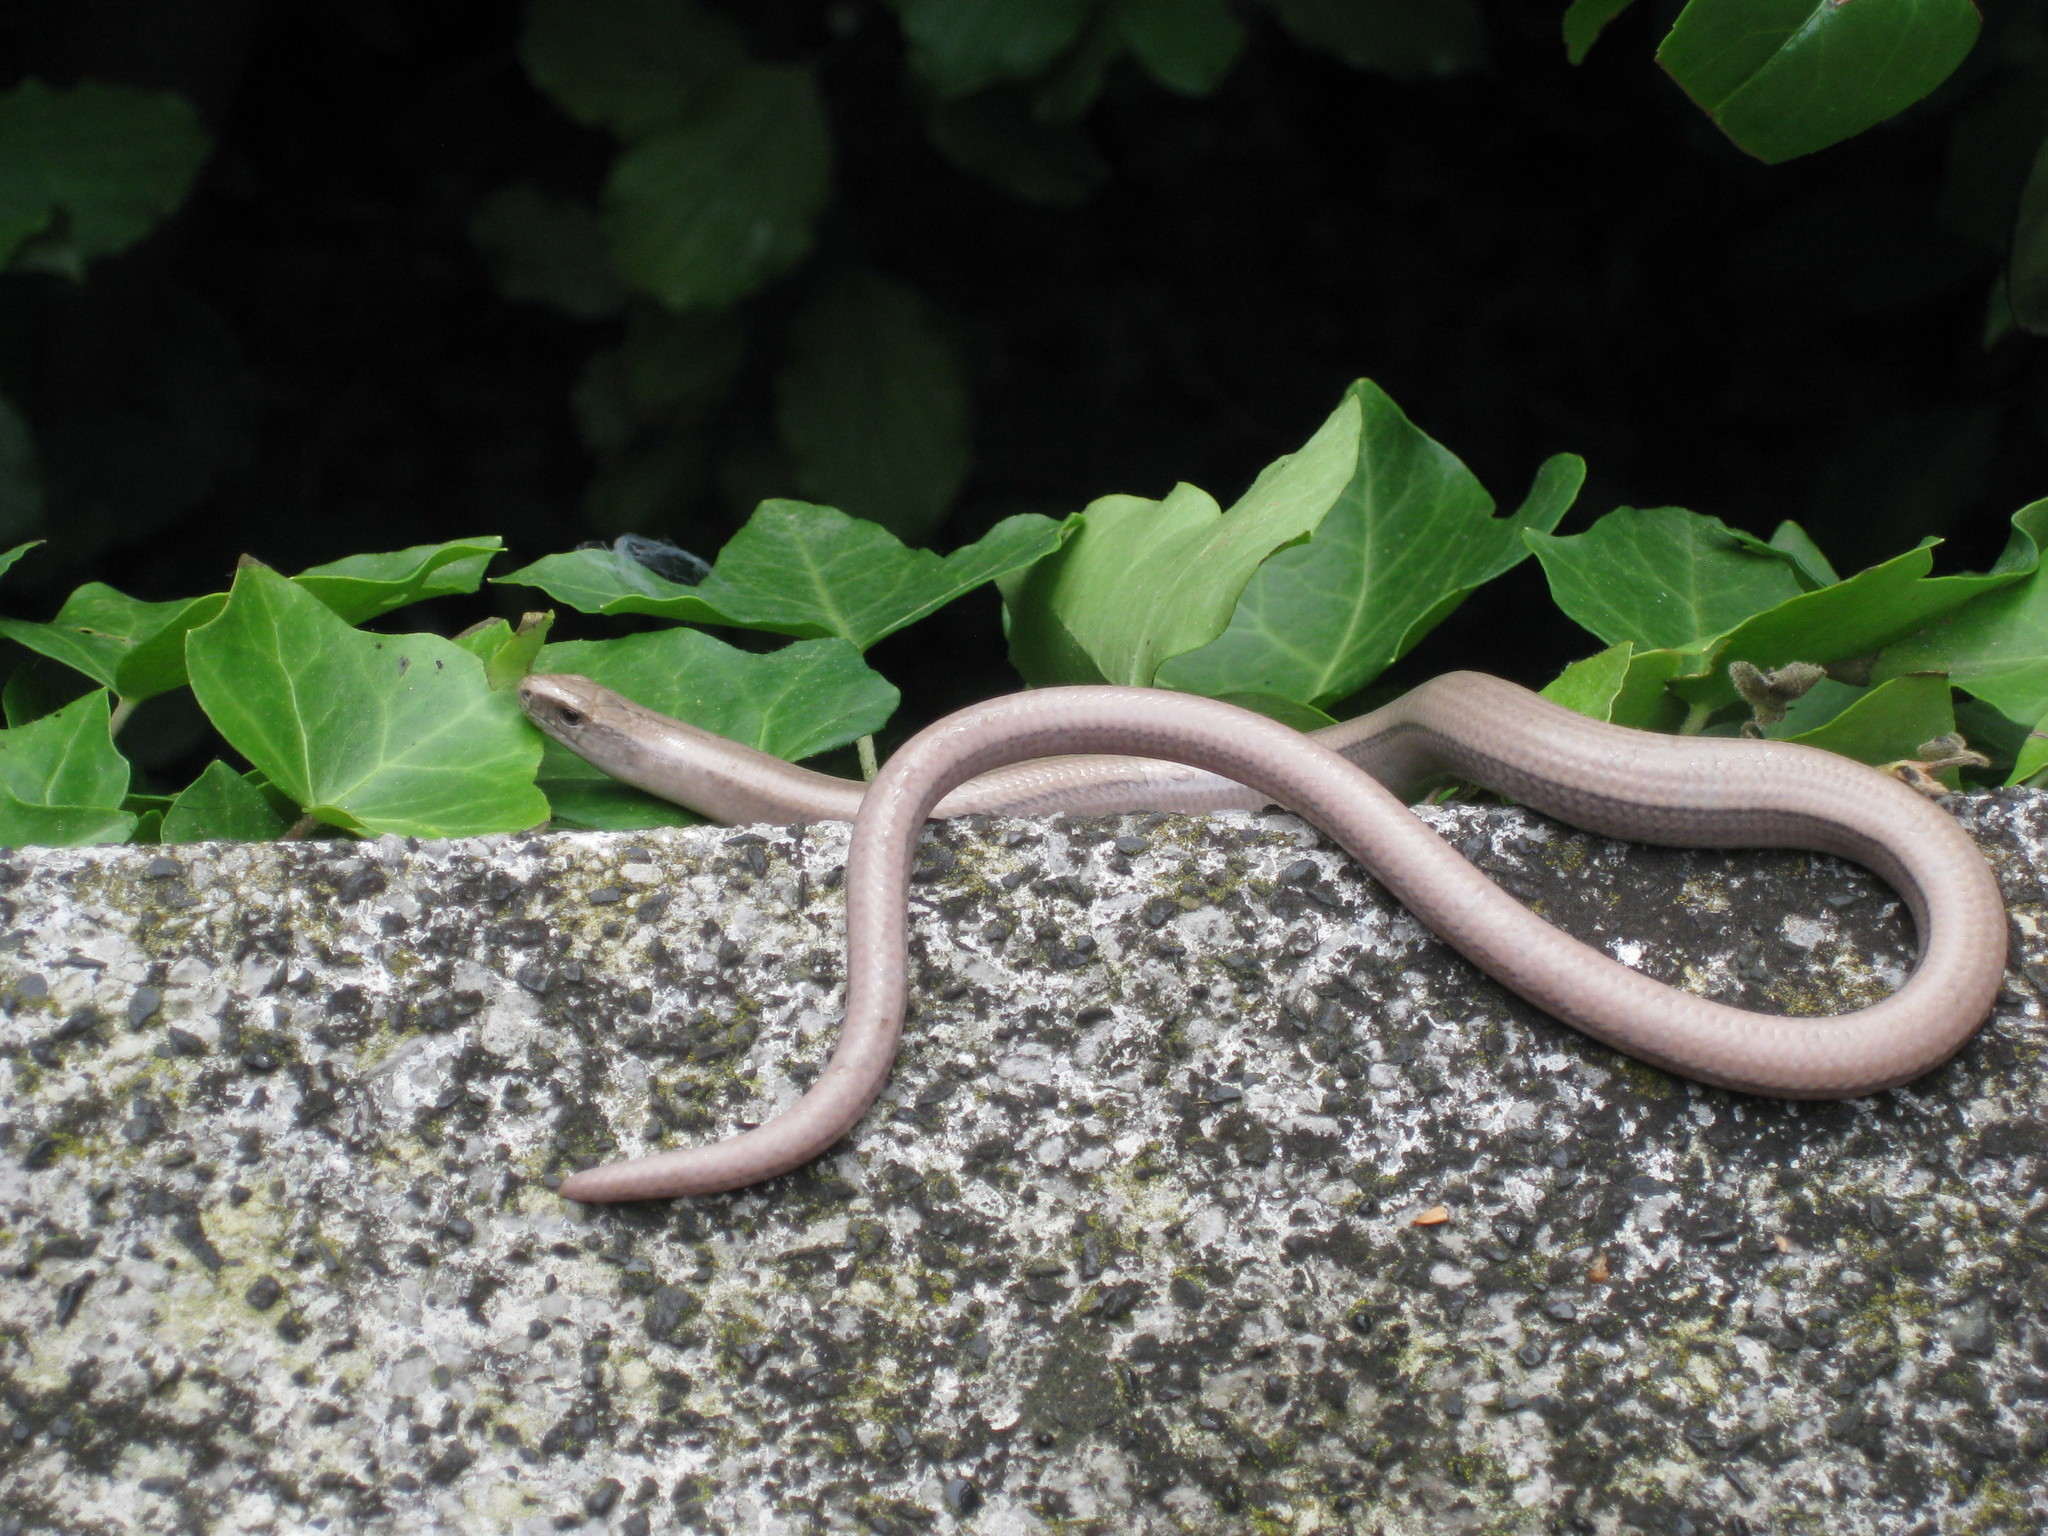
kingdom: Animalia
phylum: Chordata
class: Squamata
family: Anguidae
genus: Anguis
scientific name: Anguis fragilis
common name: Slow worm
